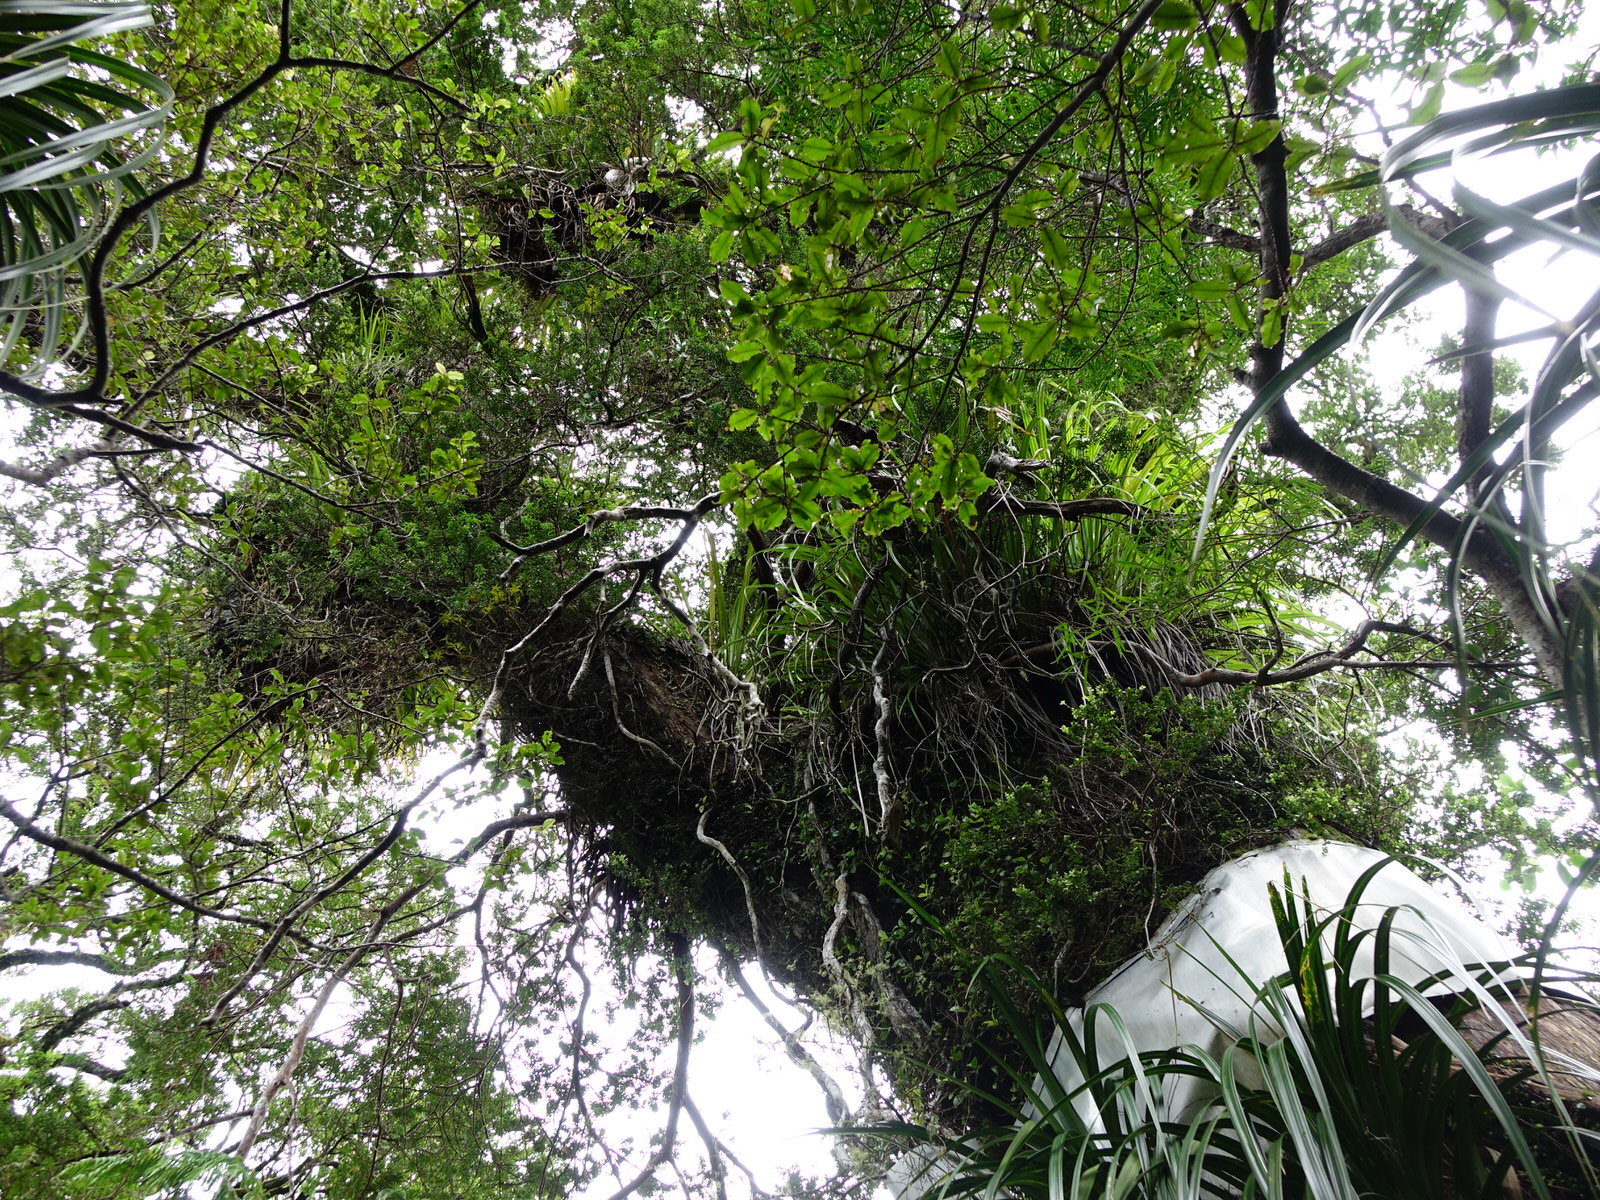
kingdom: Plantae
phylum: Tracheophyta
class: Magnoliopsida
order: Santalales
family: Loranthaceae
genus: Ileostylus
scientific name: Ileostylus micranthus
